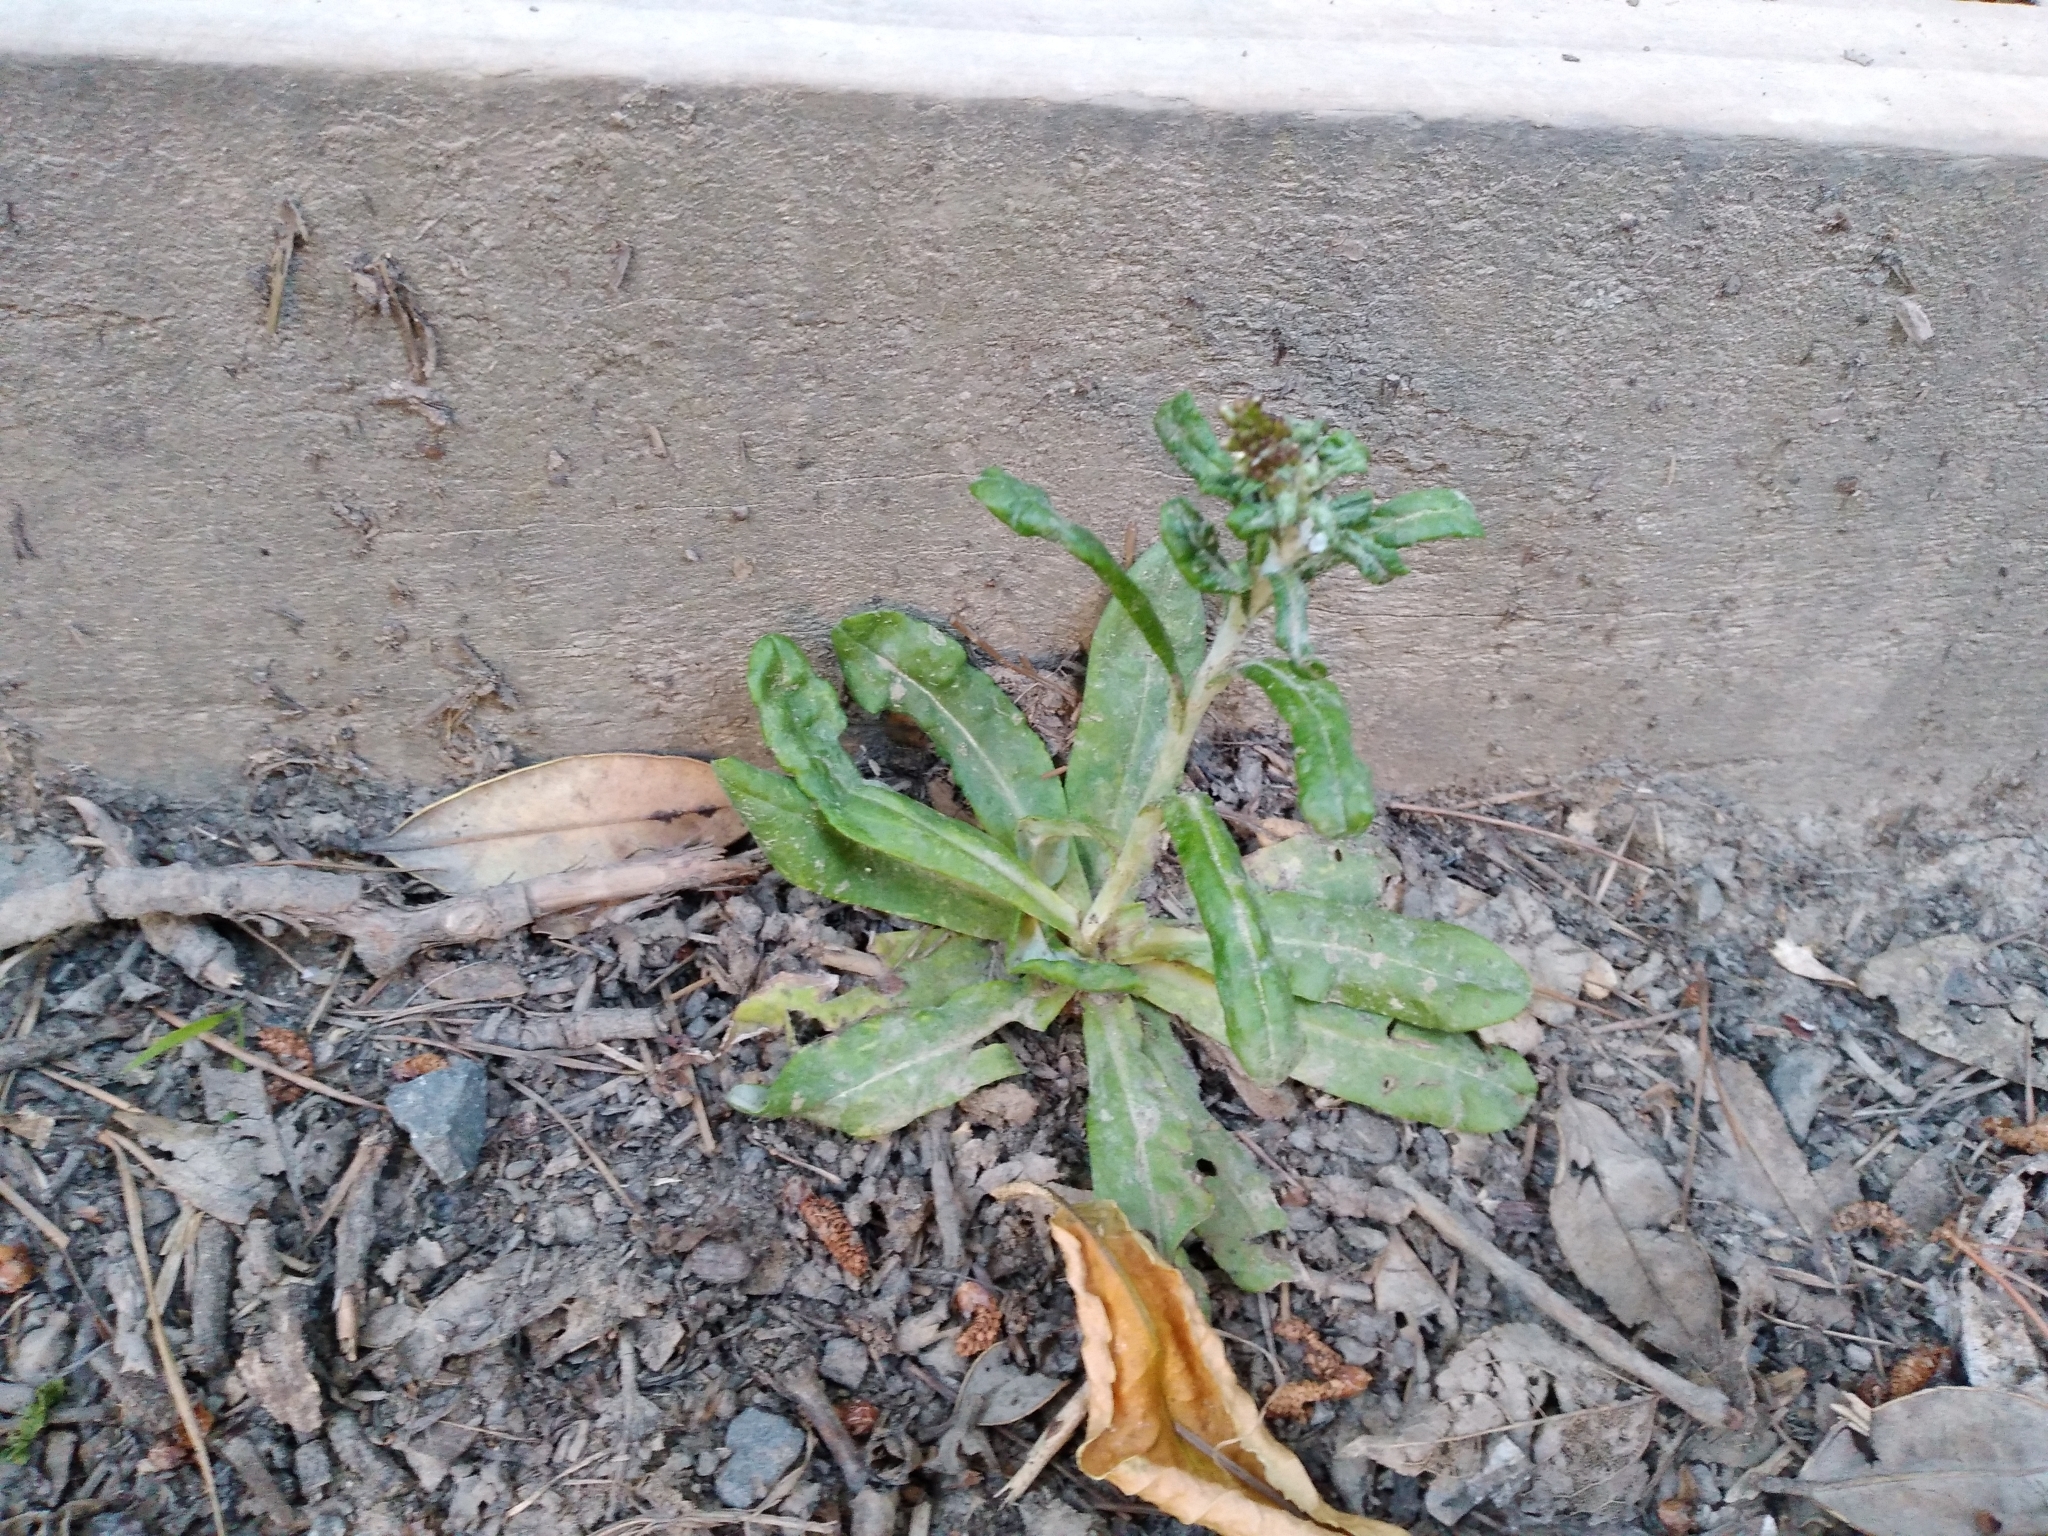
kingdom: Plantae
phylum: Tracheophyta
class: Magnoliopsida
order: Asterales
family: Asteraceae
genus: Gamochaeta
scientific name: Gamochaeta americana
